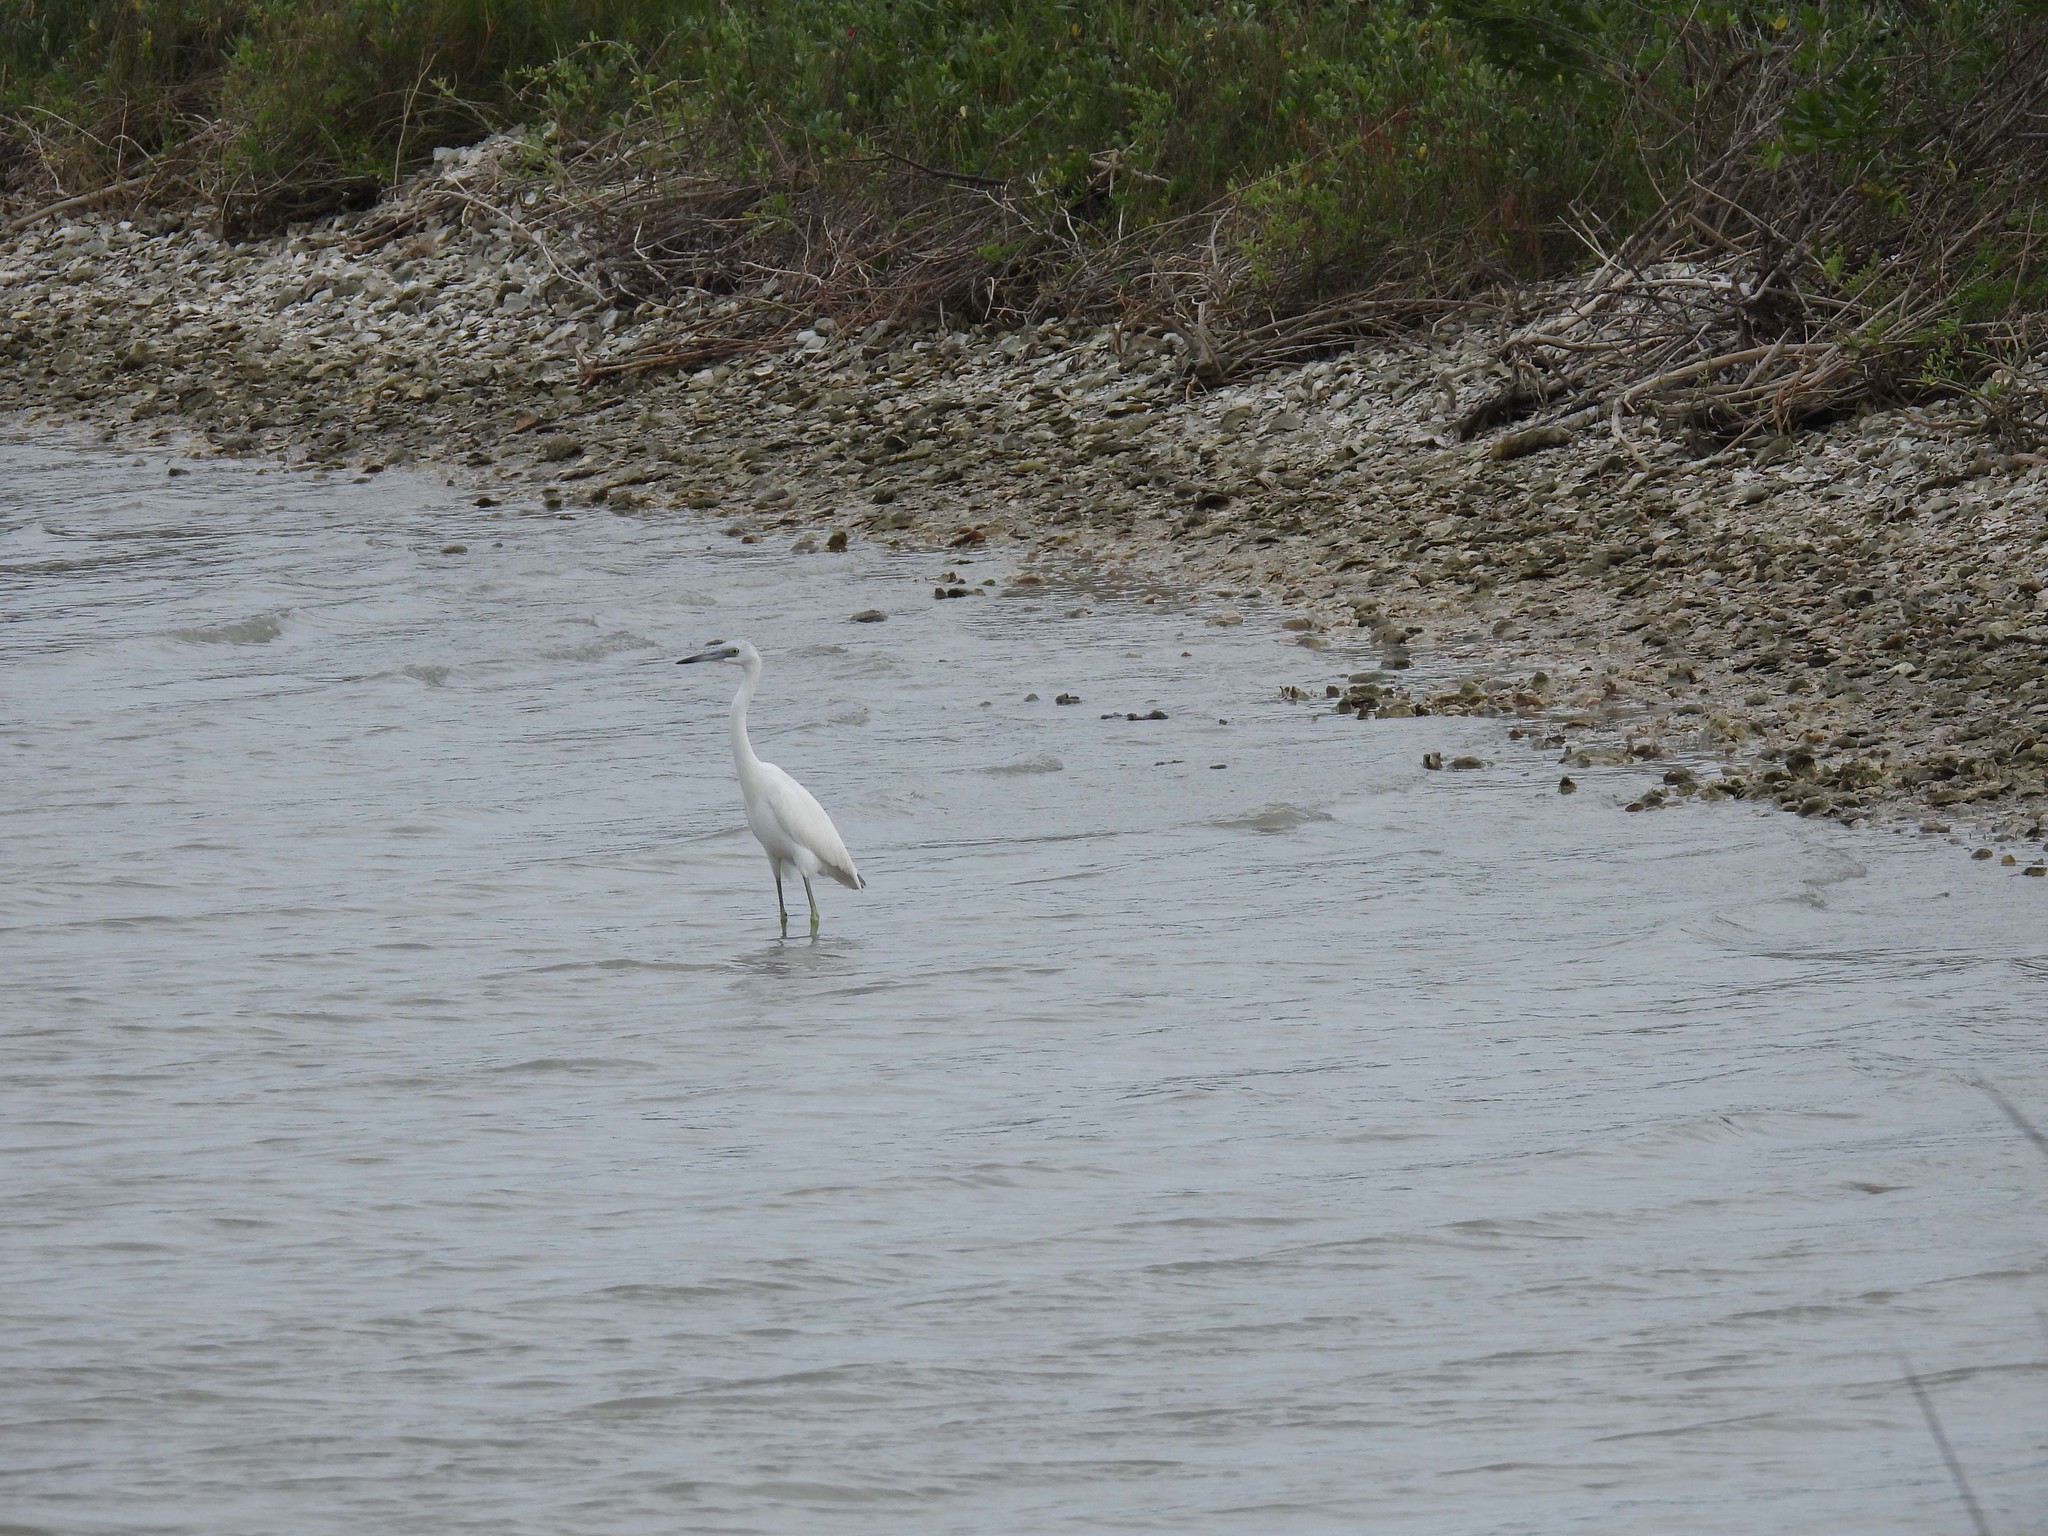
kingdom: Animalia
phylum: Chordata
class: Aves
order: Pelecaniformes
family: Ardeidae
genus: Egretta
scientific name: Egretta caerulea
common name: Little blue heron
